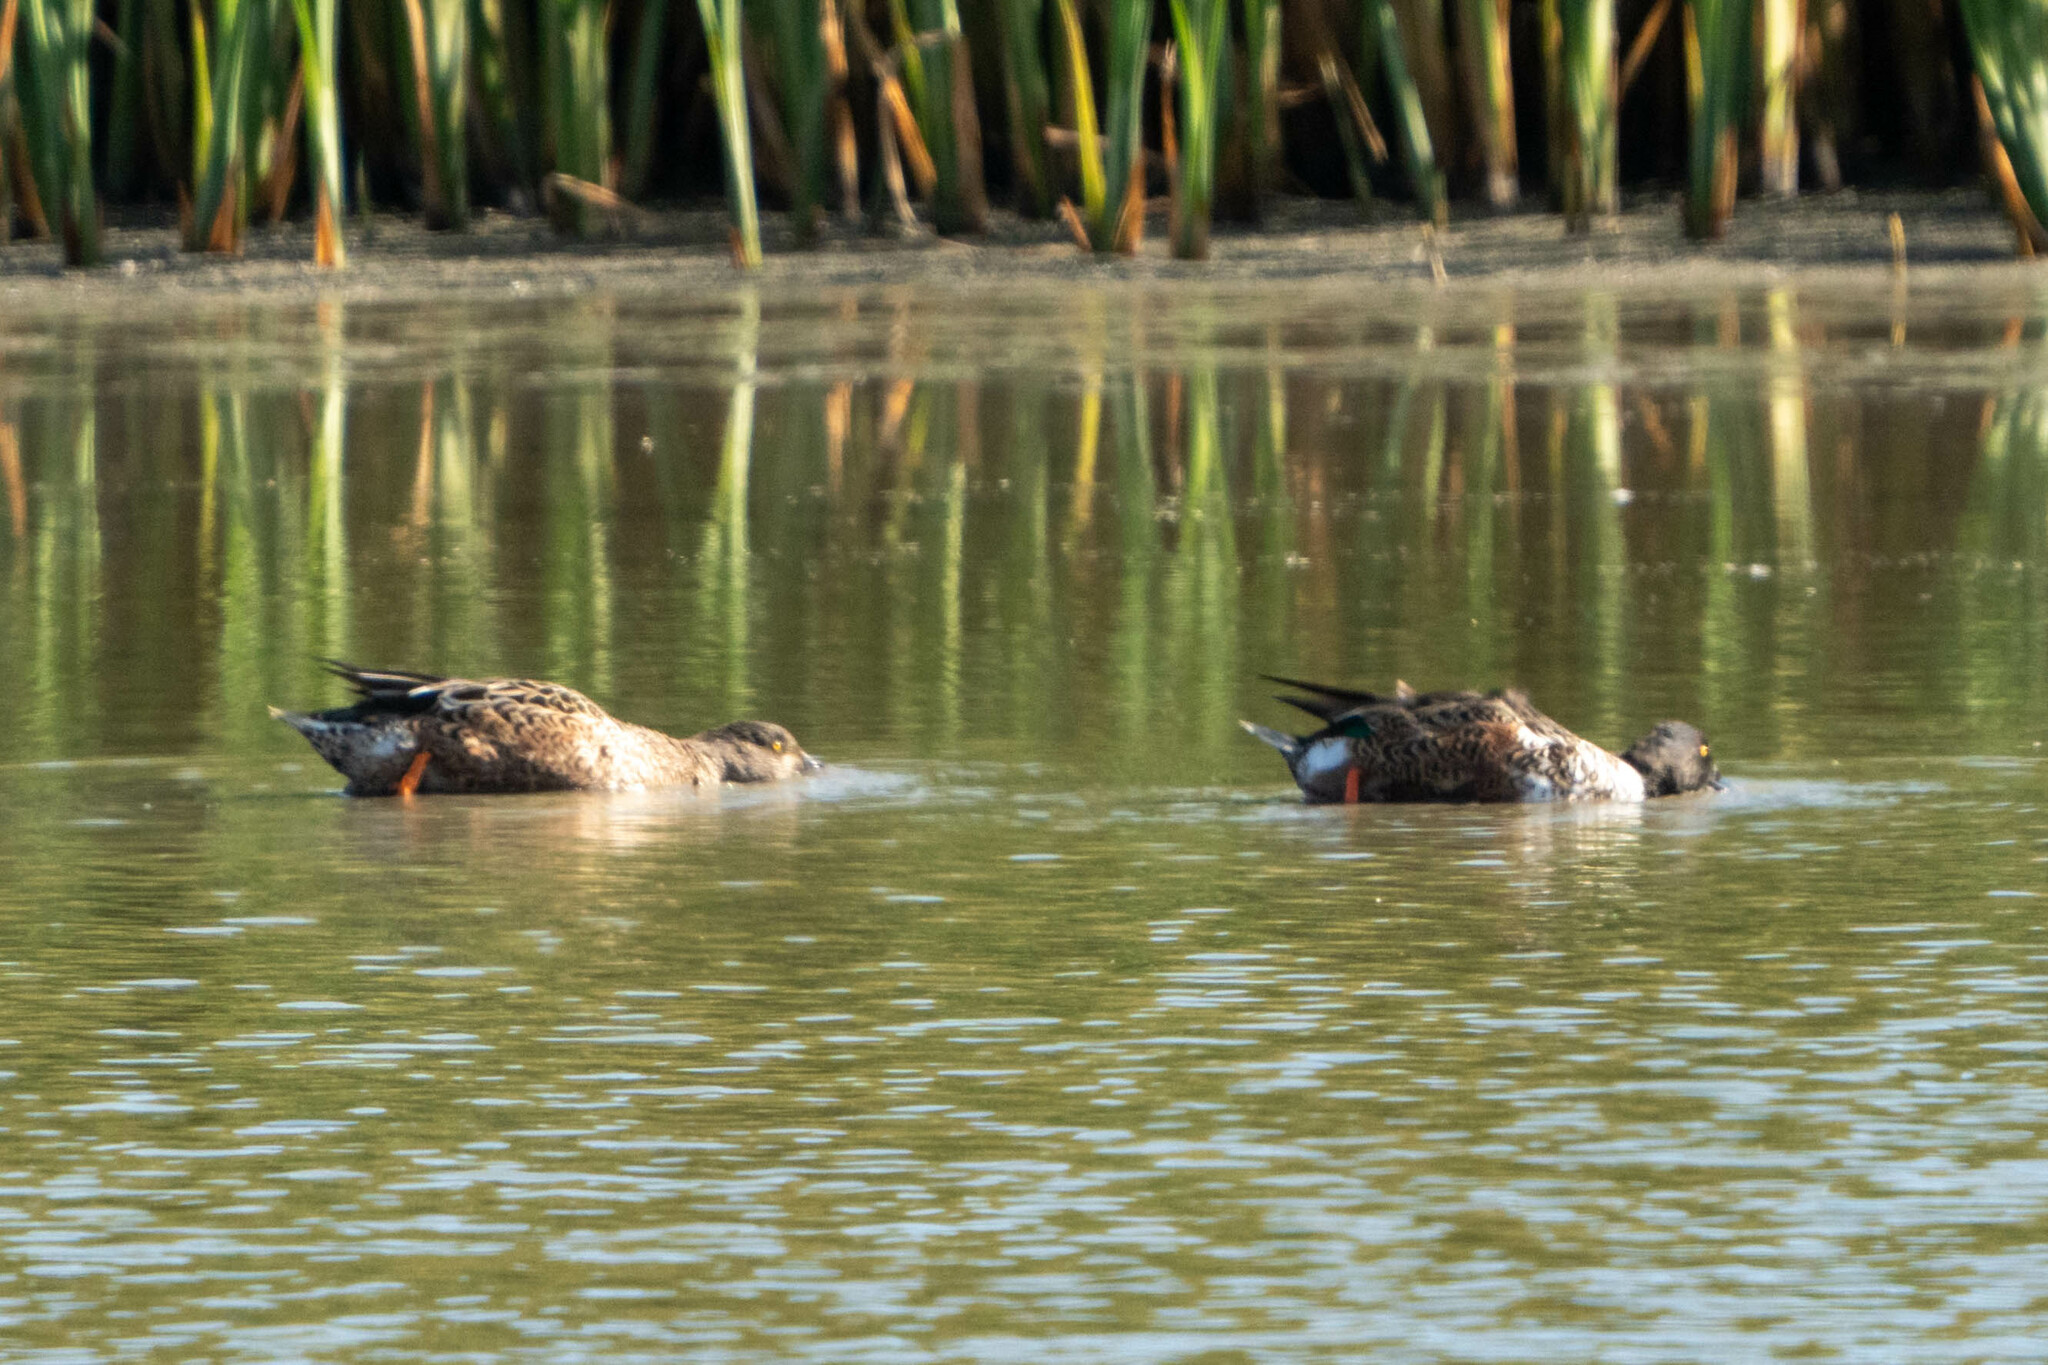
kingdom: Animalia
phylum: Chordata
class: Aves
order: Anseriformes
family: Anatidae
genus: Spatula
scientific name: Spatula clypeata
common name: Northern shoveler
